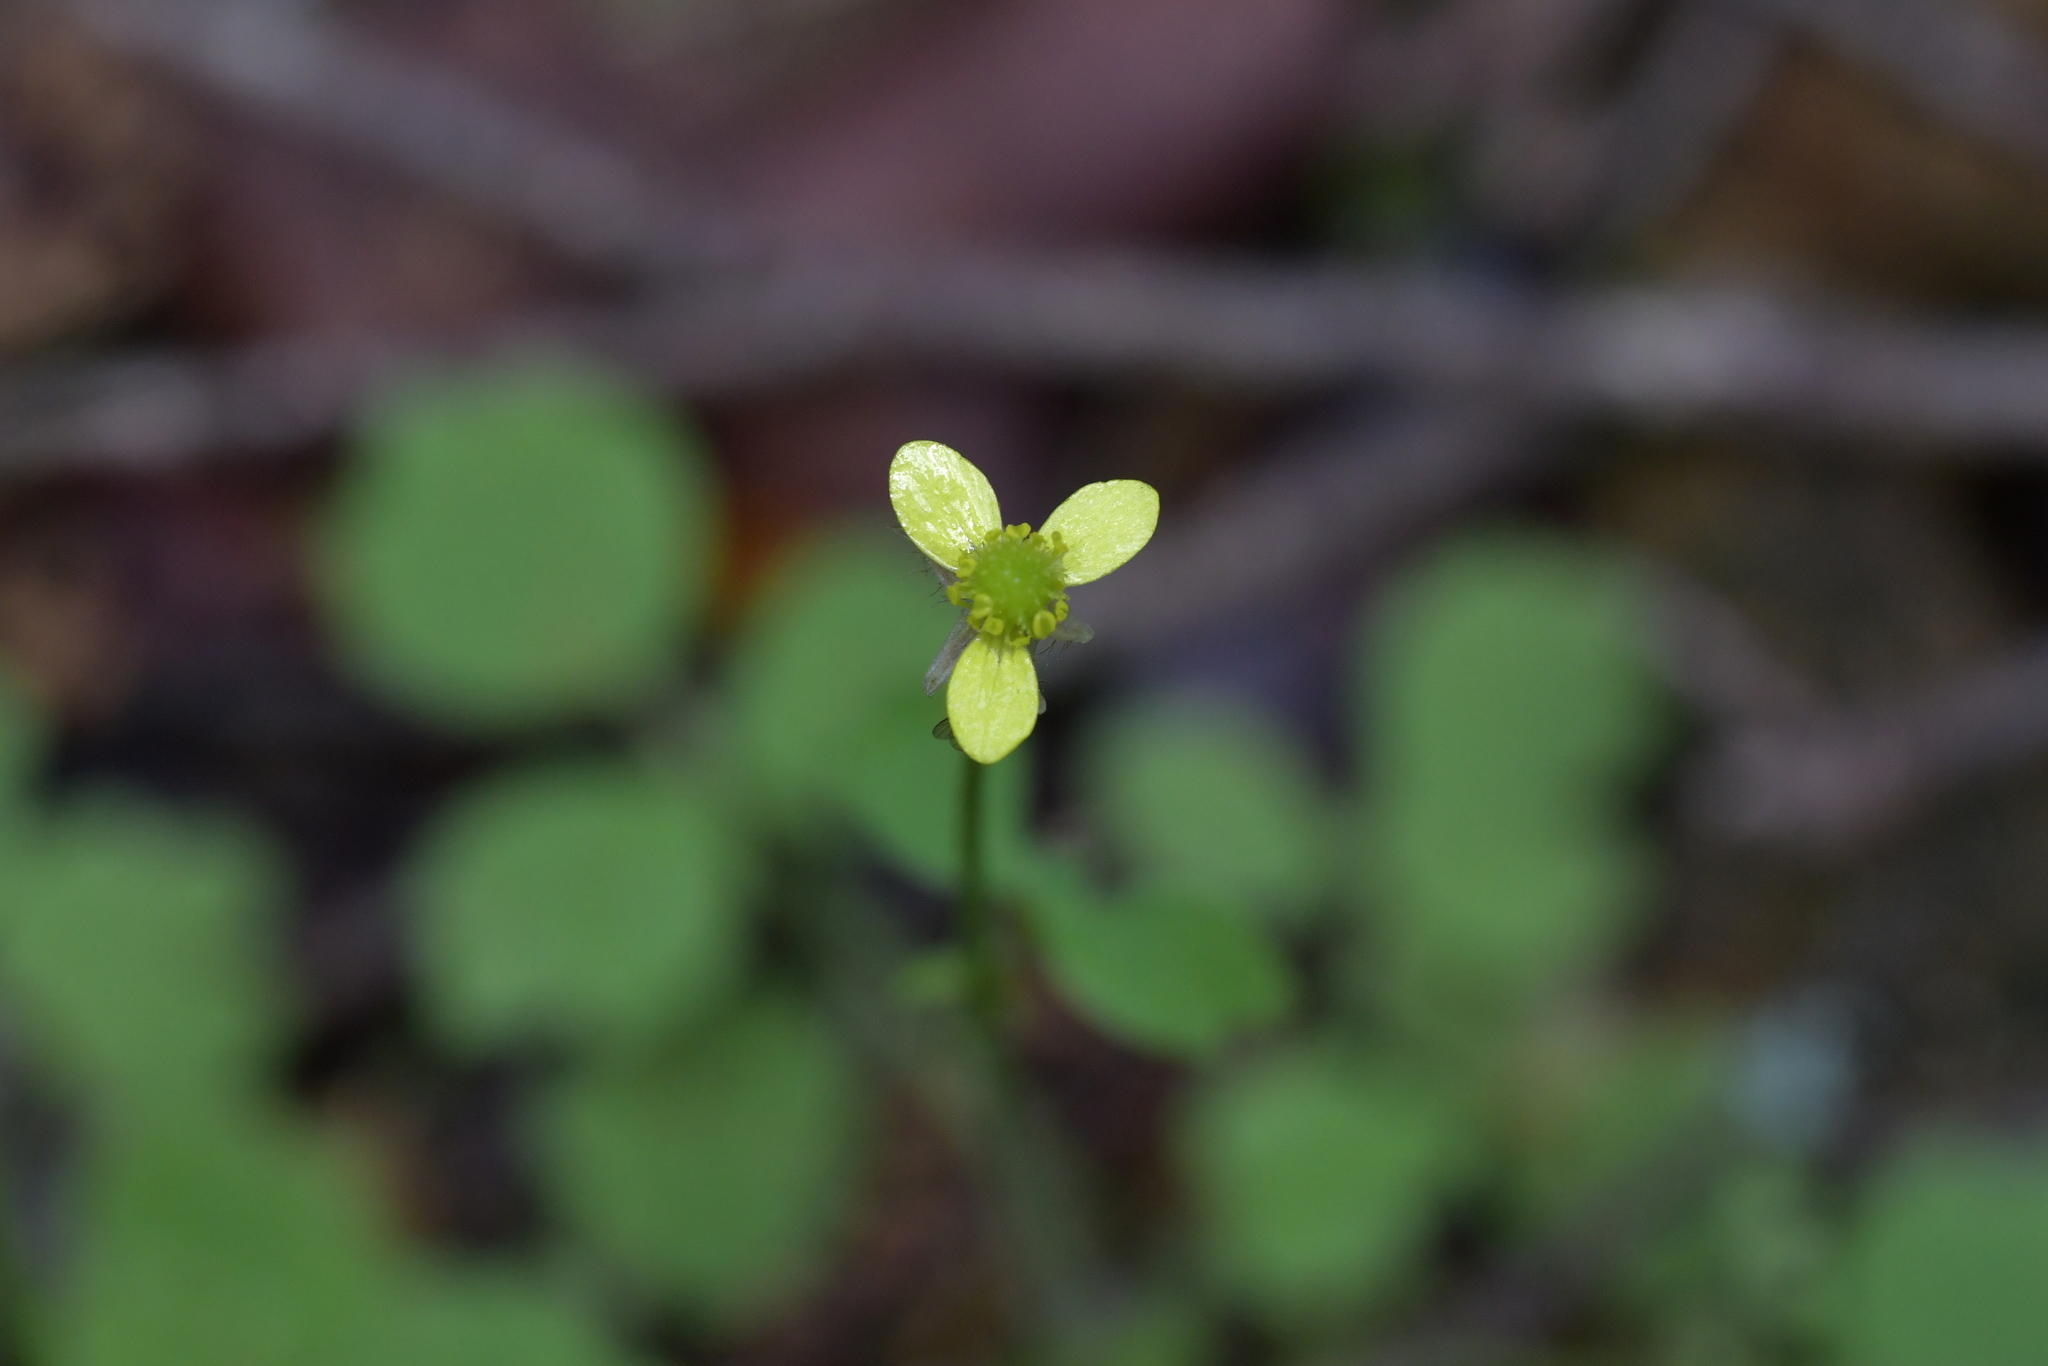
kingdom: Plantae
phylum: Tracheophyta
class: Magnoliopsida
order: Ranunculales
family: Ranunculaceae
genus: Ranunculus
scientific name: Ranunculus reflexus
